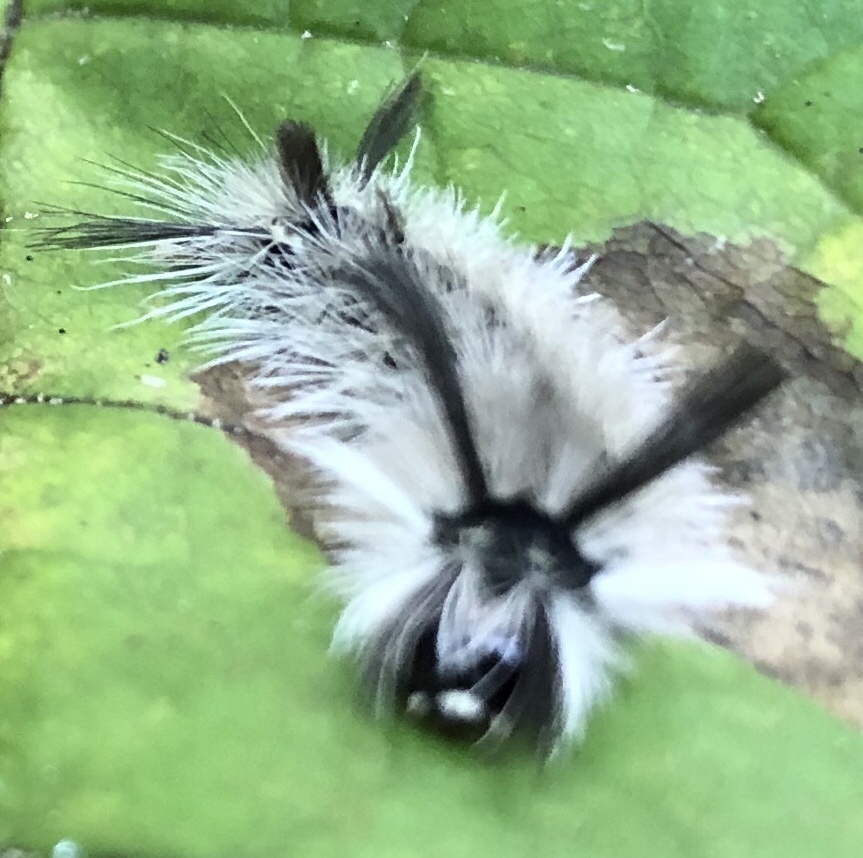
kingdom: Animalia
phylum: Arthropoda
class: Insecta
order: Lepidoptera
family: Erebidae
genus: Halysidota
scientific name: Halysidota tessellaris
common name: Banded tussock moth
